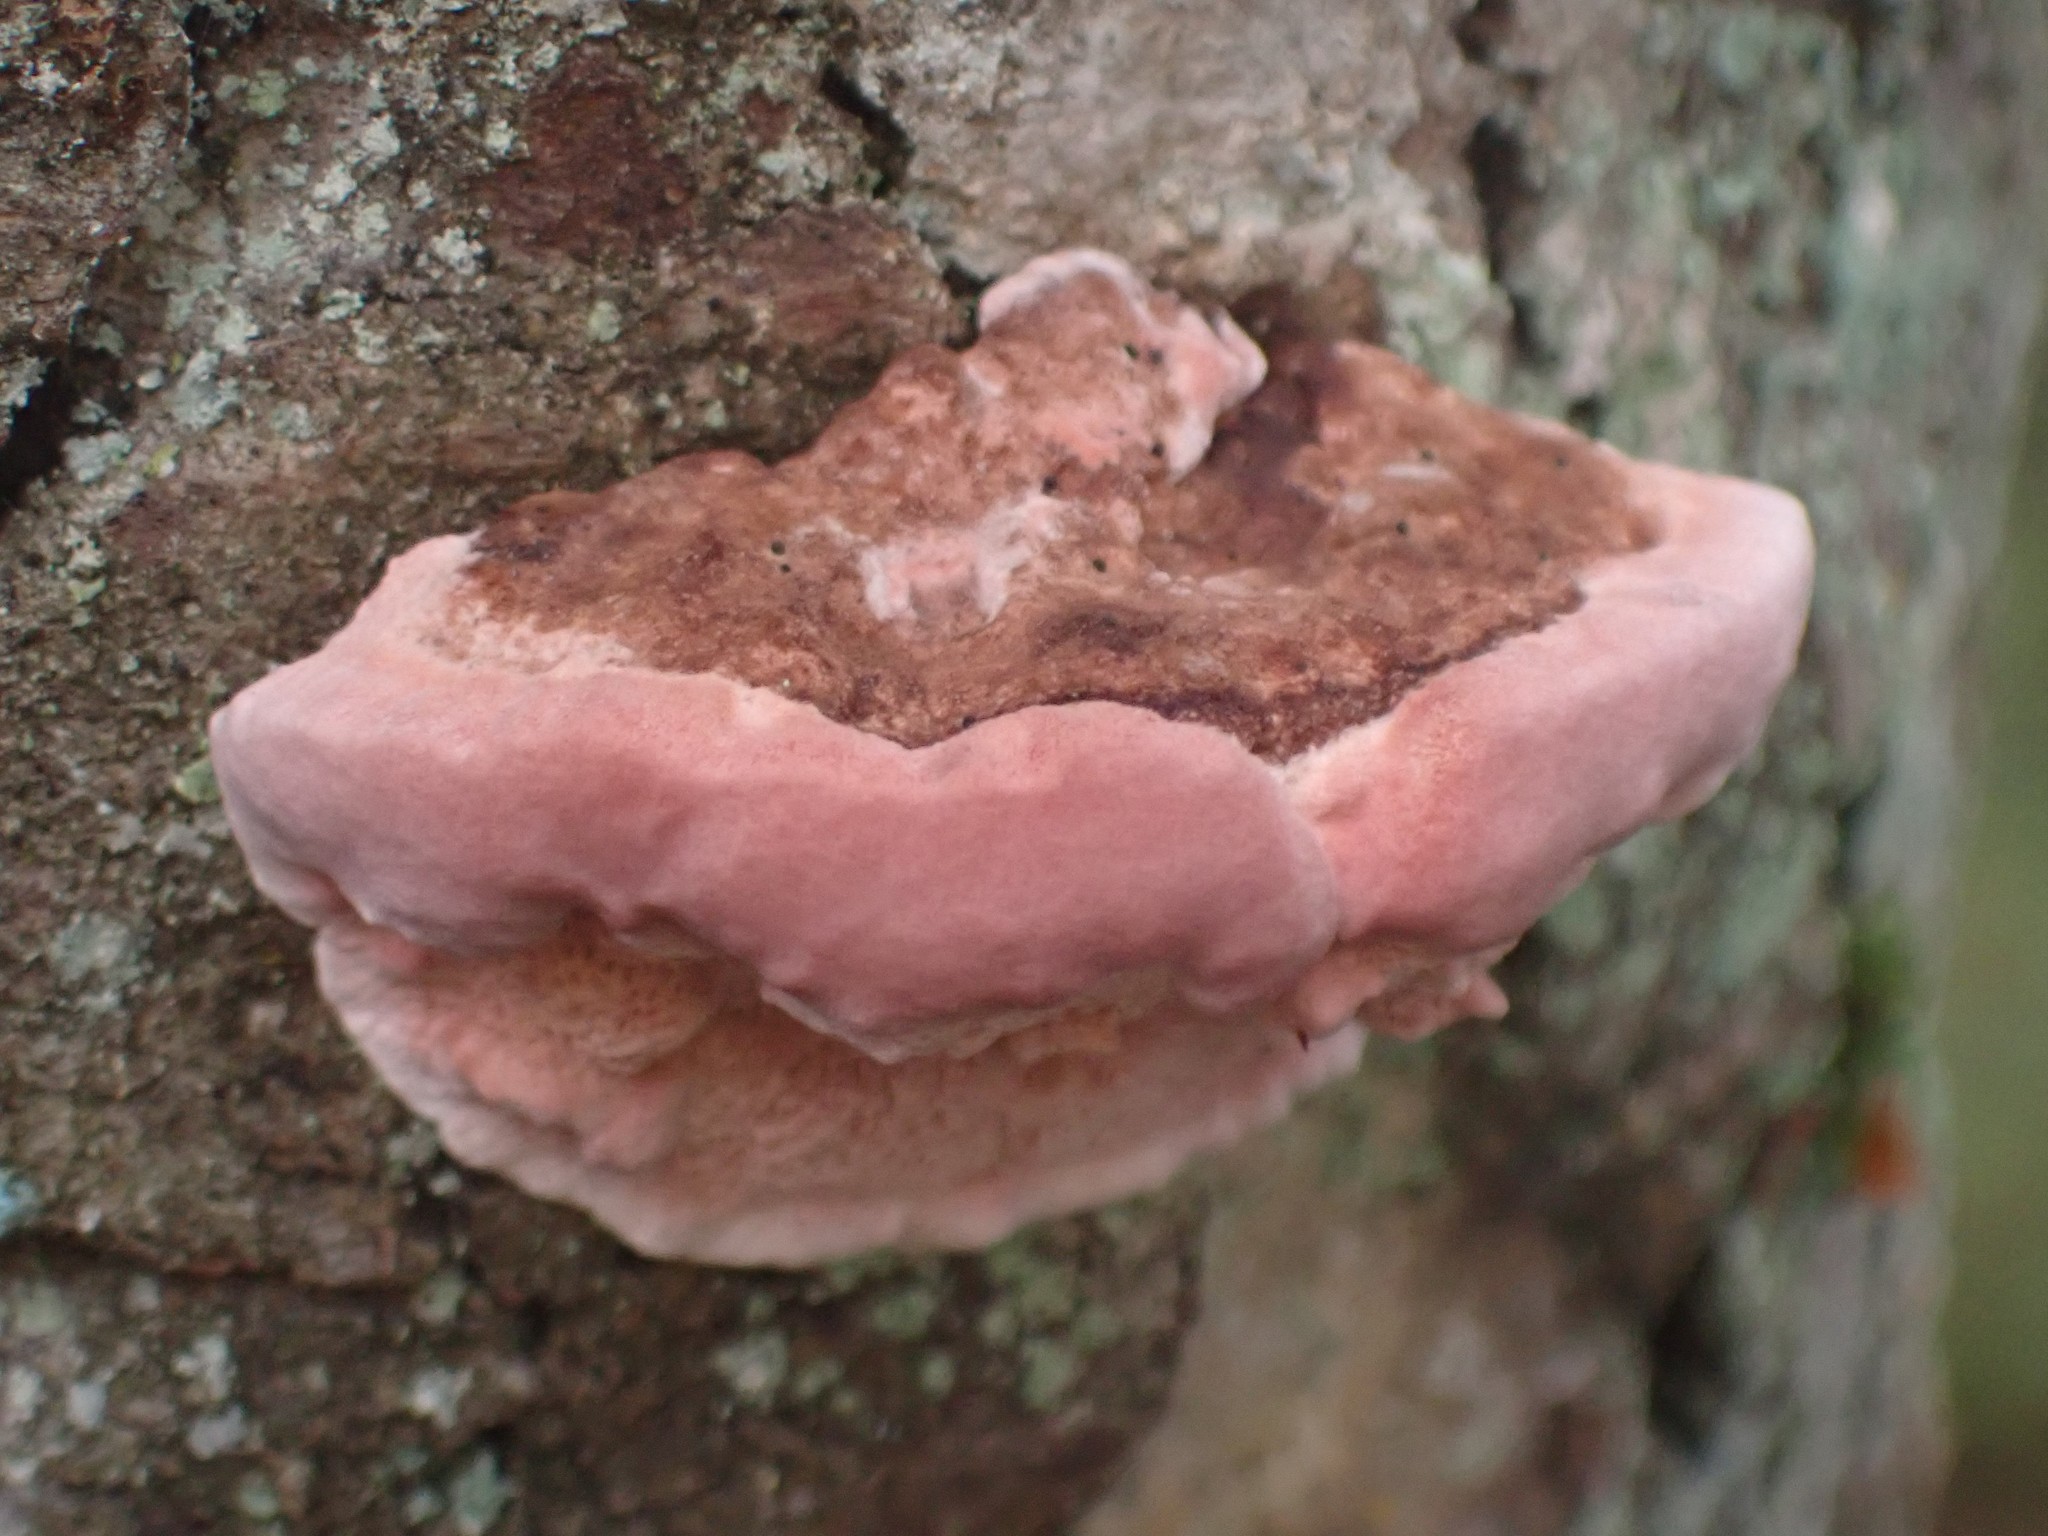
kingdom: Fungi
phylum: Basidiomycota
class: Agaricomycetes
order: Polyporales
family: Fomitopsidaceae
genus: Rhodofomes
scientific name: Rhodofomes cajanderi
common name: Rosy conk
